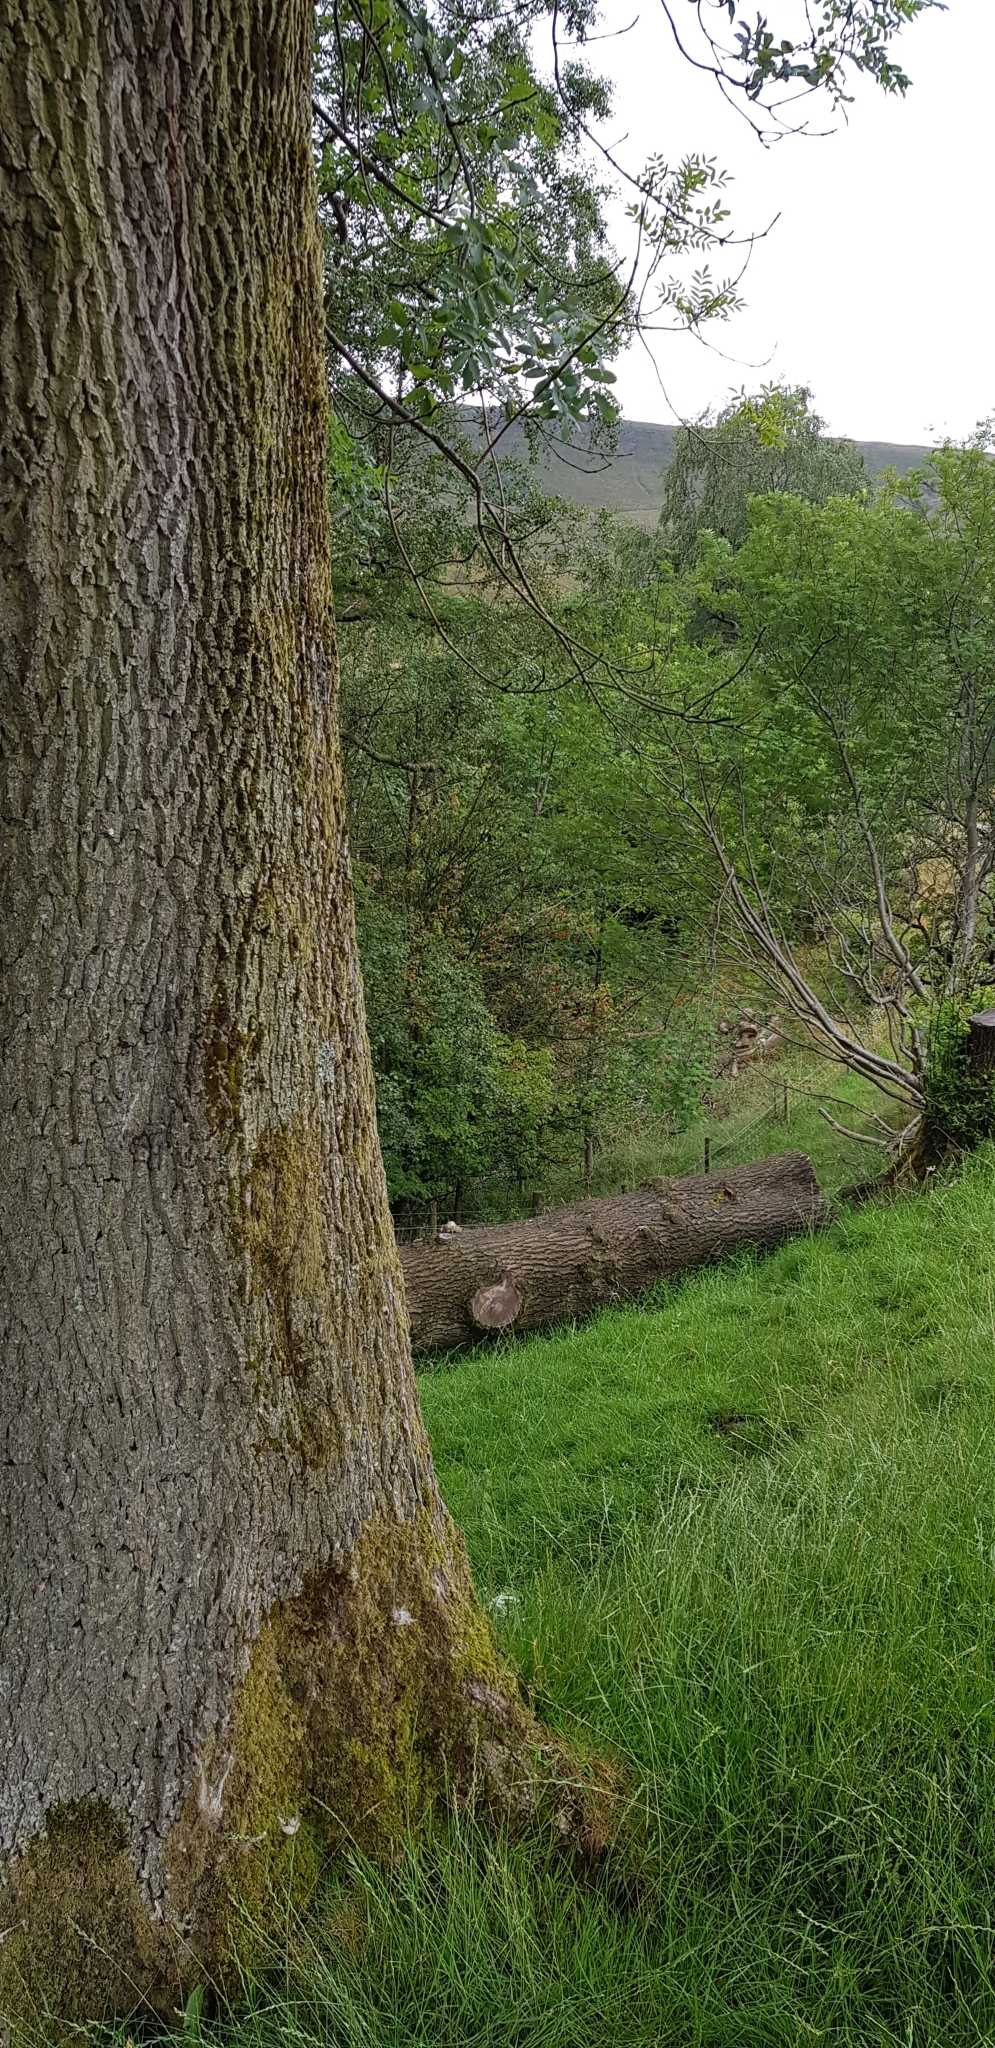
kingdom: Plantae
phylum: Bryophyta
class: Bryopsida
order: Orthotrichales
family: Orthotrichaceae
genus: Plenogemma
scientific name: Plenogemma phyllantha
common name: Frizzled pincushion
